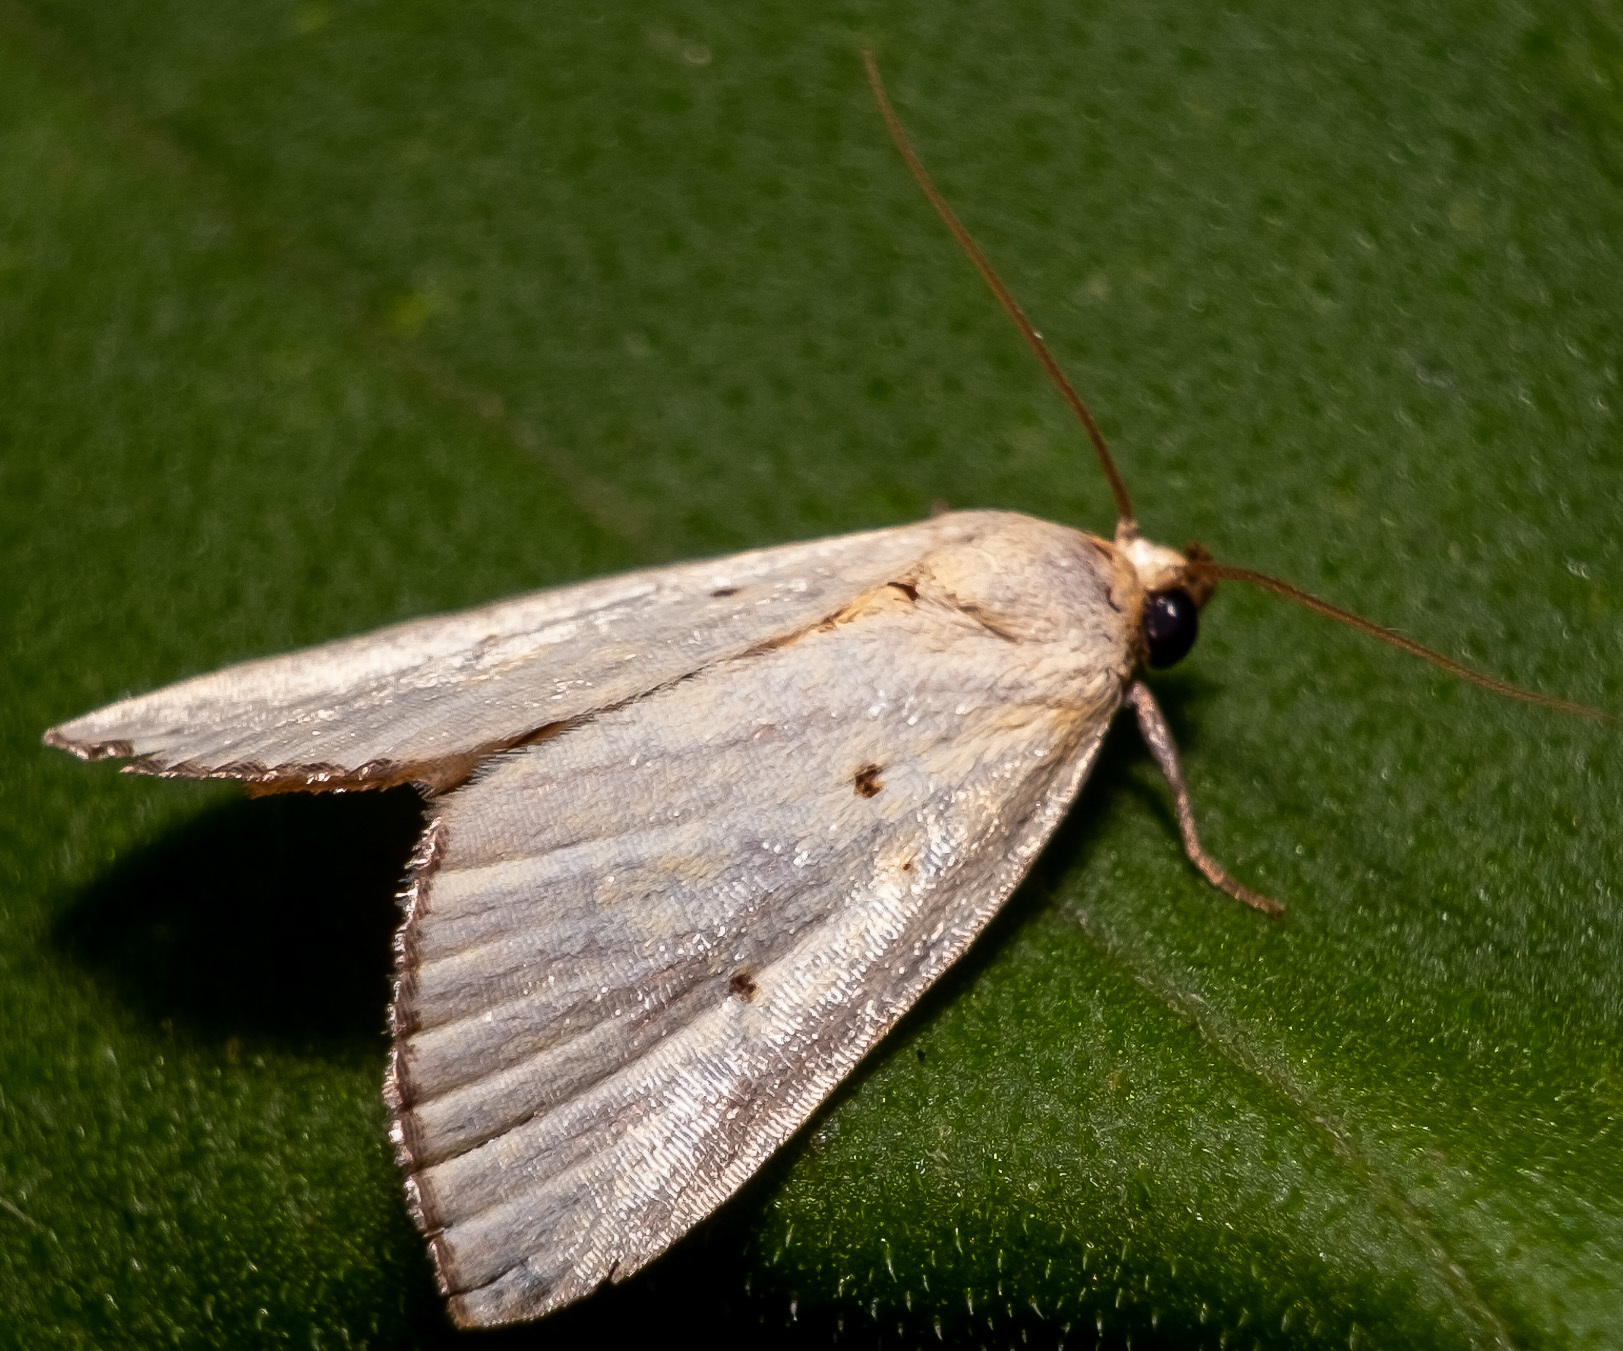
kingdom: Animalia
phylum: Arthropoda
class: Insecta
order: Lepidoptera
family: Noctuidae
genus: Marimatha
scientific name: Marimatha nigrofimbria
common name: Black-bordered lemon moth
